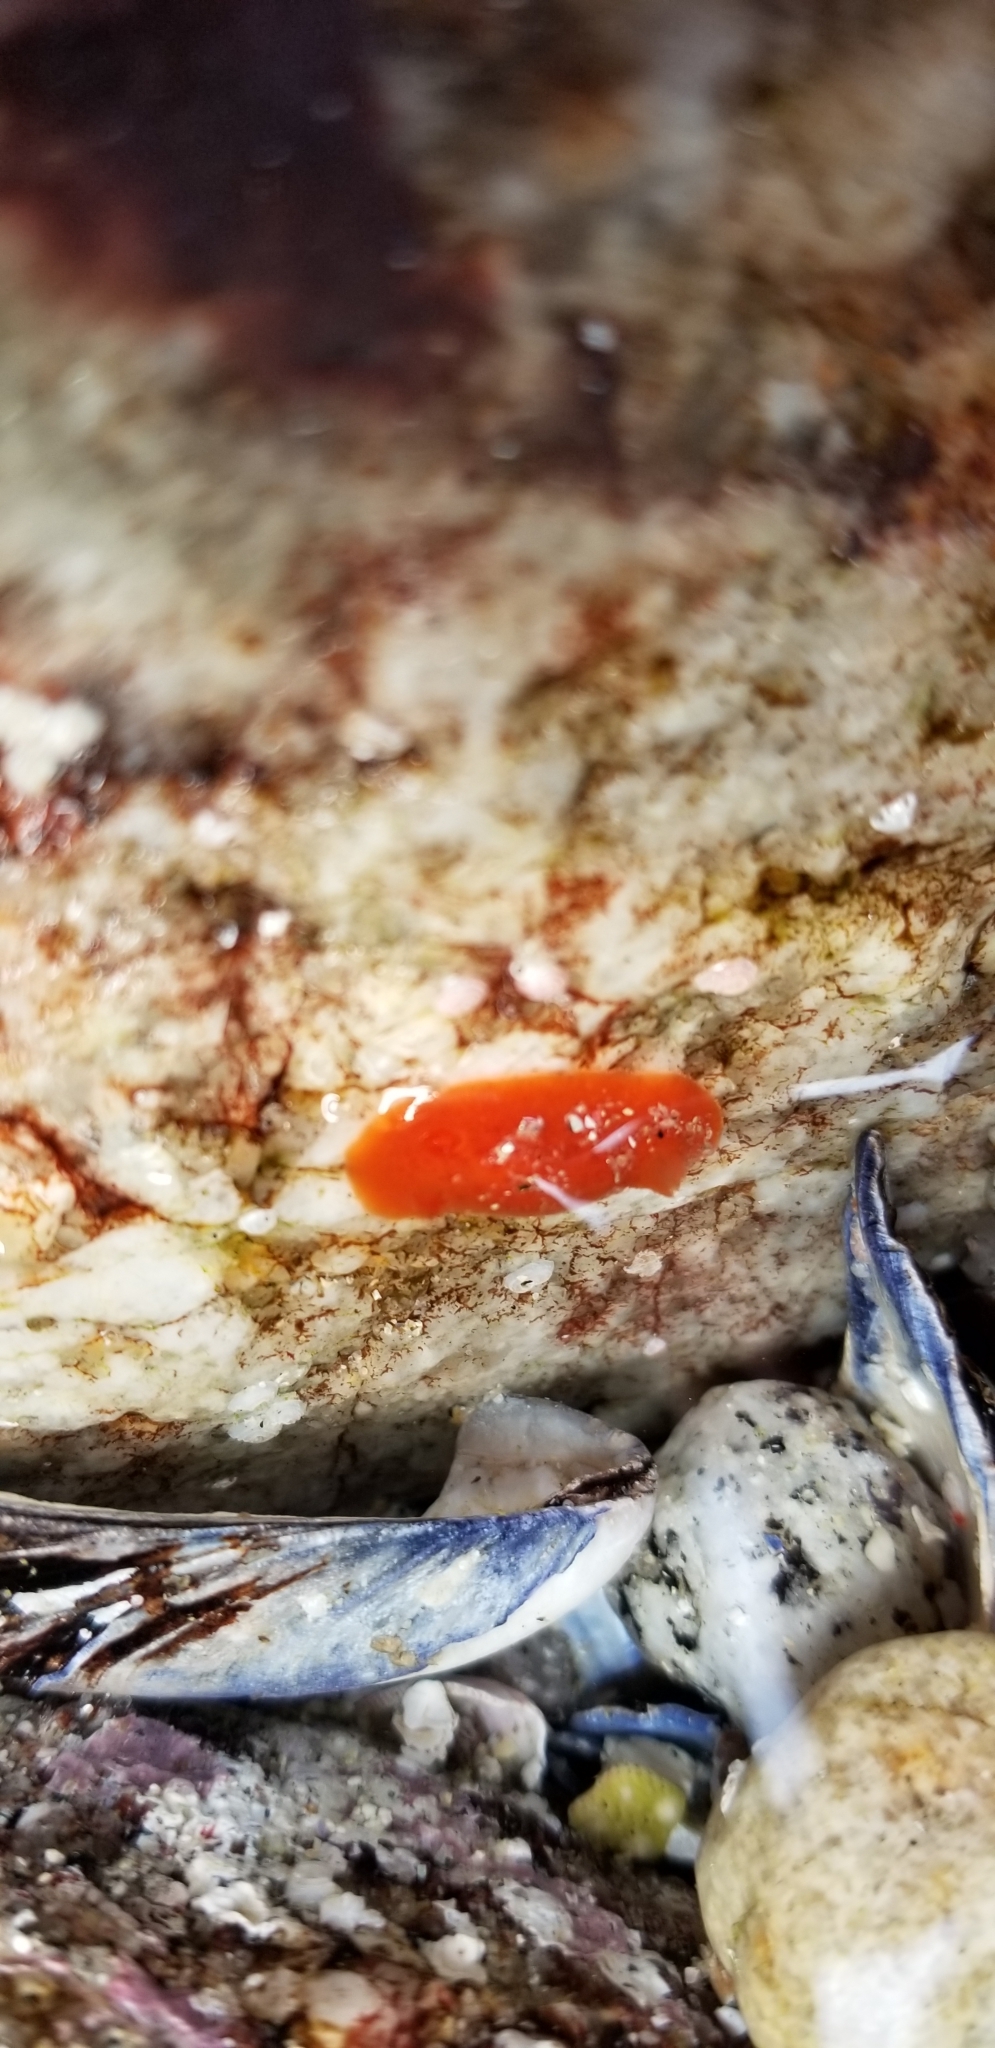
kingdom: Animalia
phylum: Mollusca
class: Gastropoda
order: Nudibranchia
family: Discodorididae
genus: Rostanga
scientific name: Rostanga pulchra
